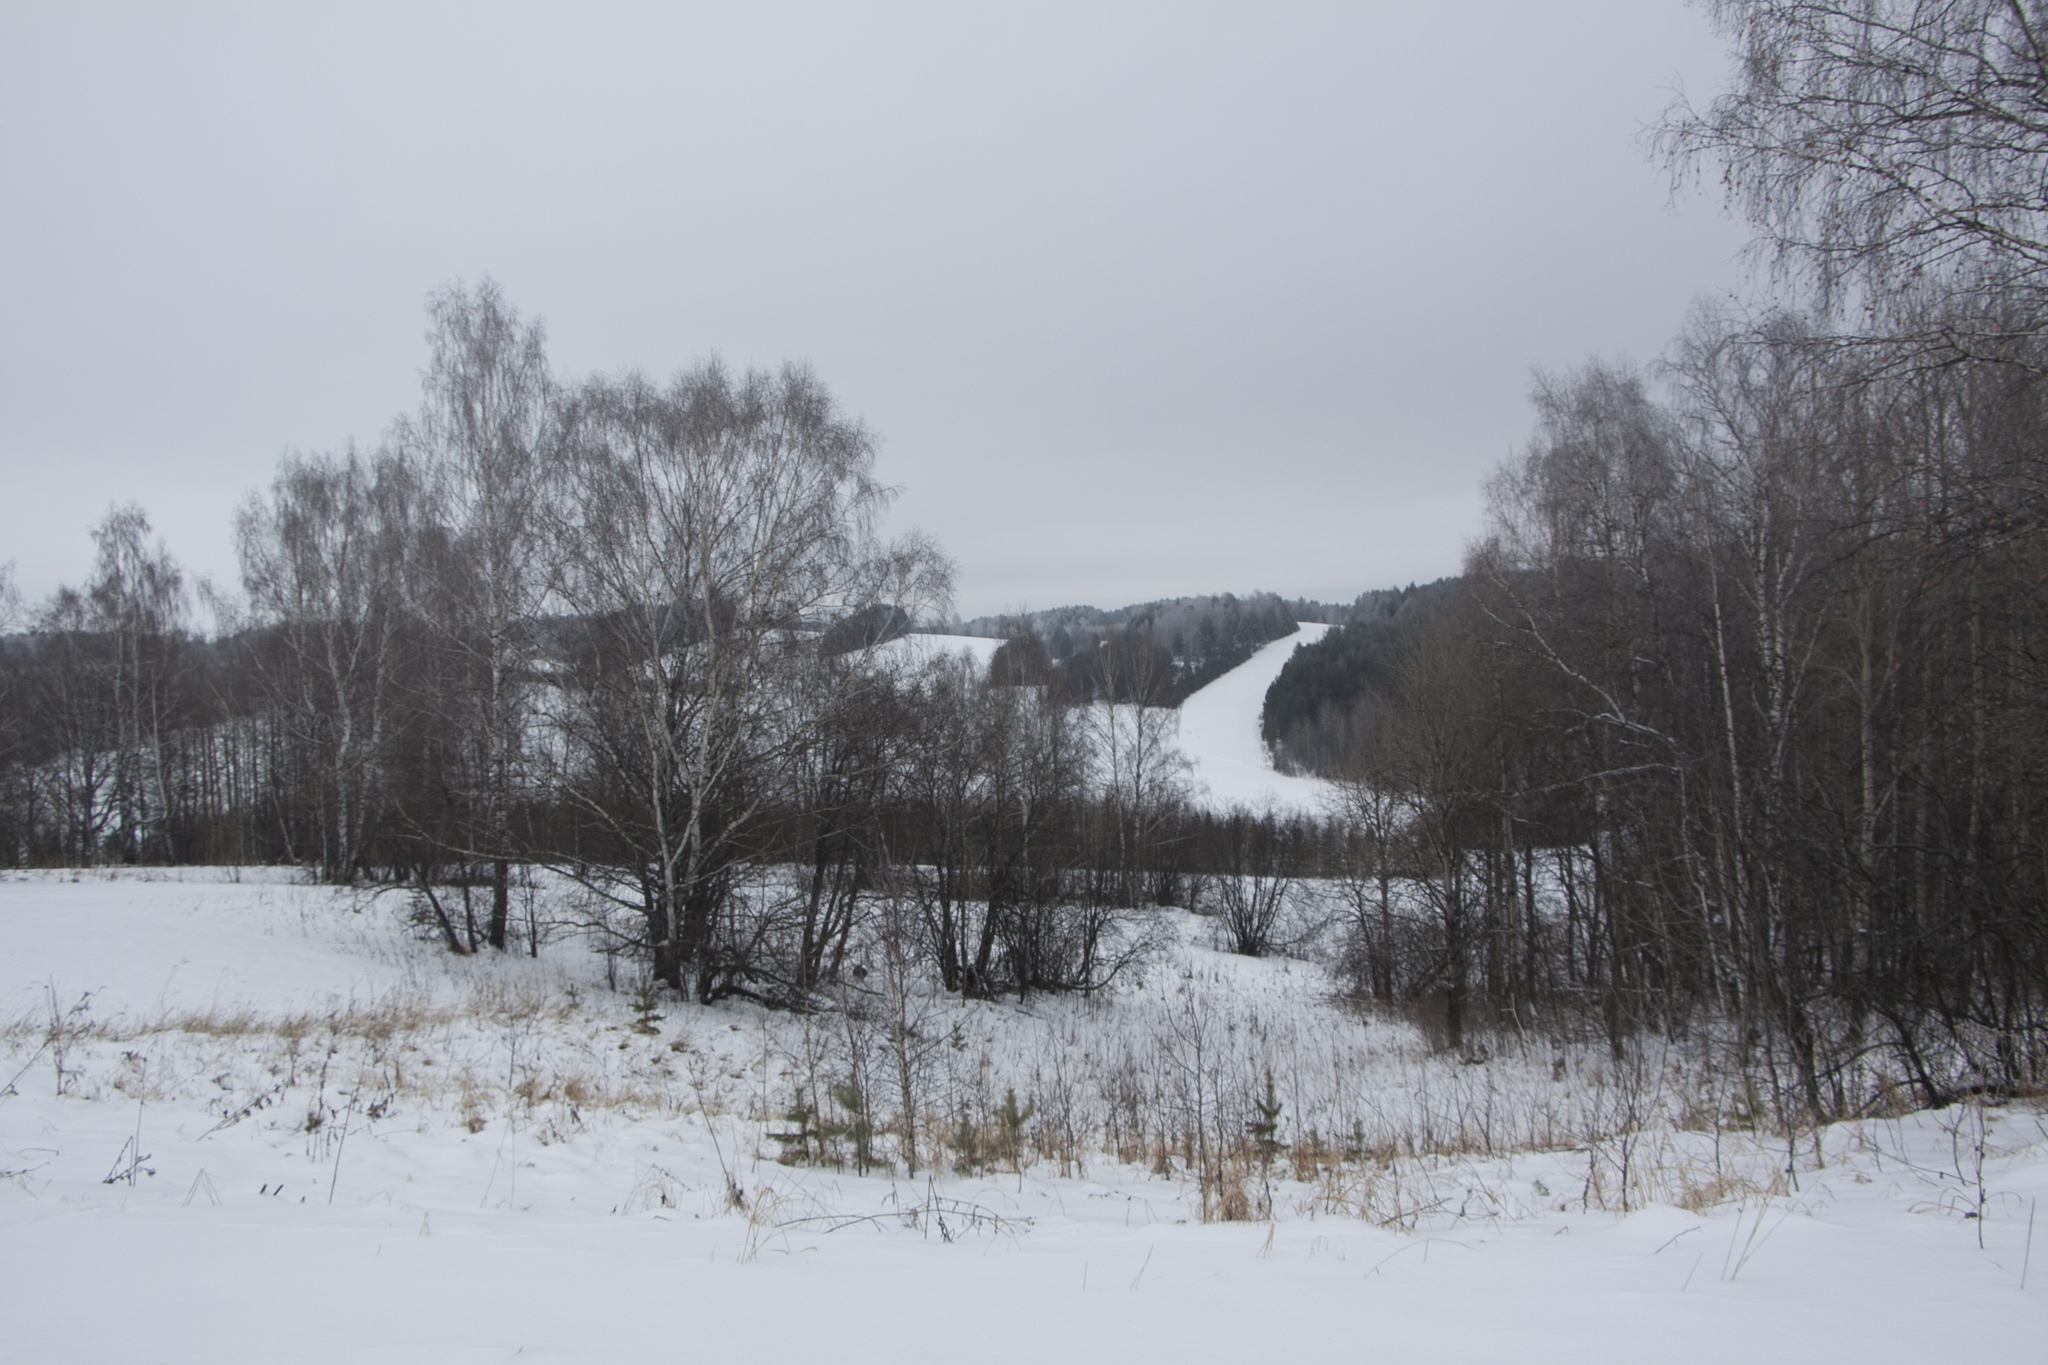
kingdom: Plantae
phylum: Tracheophyta
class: Magnoliopsida
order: Fagales
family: Betulaceae
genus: Betula
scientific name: Betula pendula
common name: Silver birch
